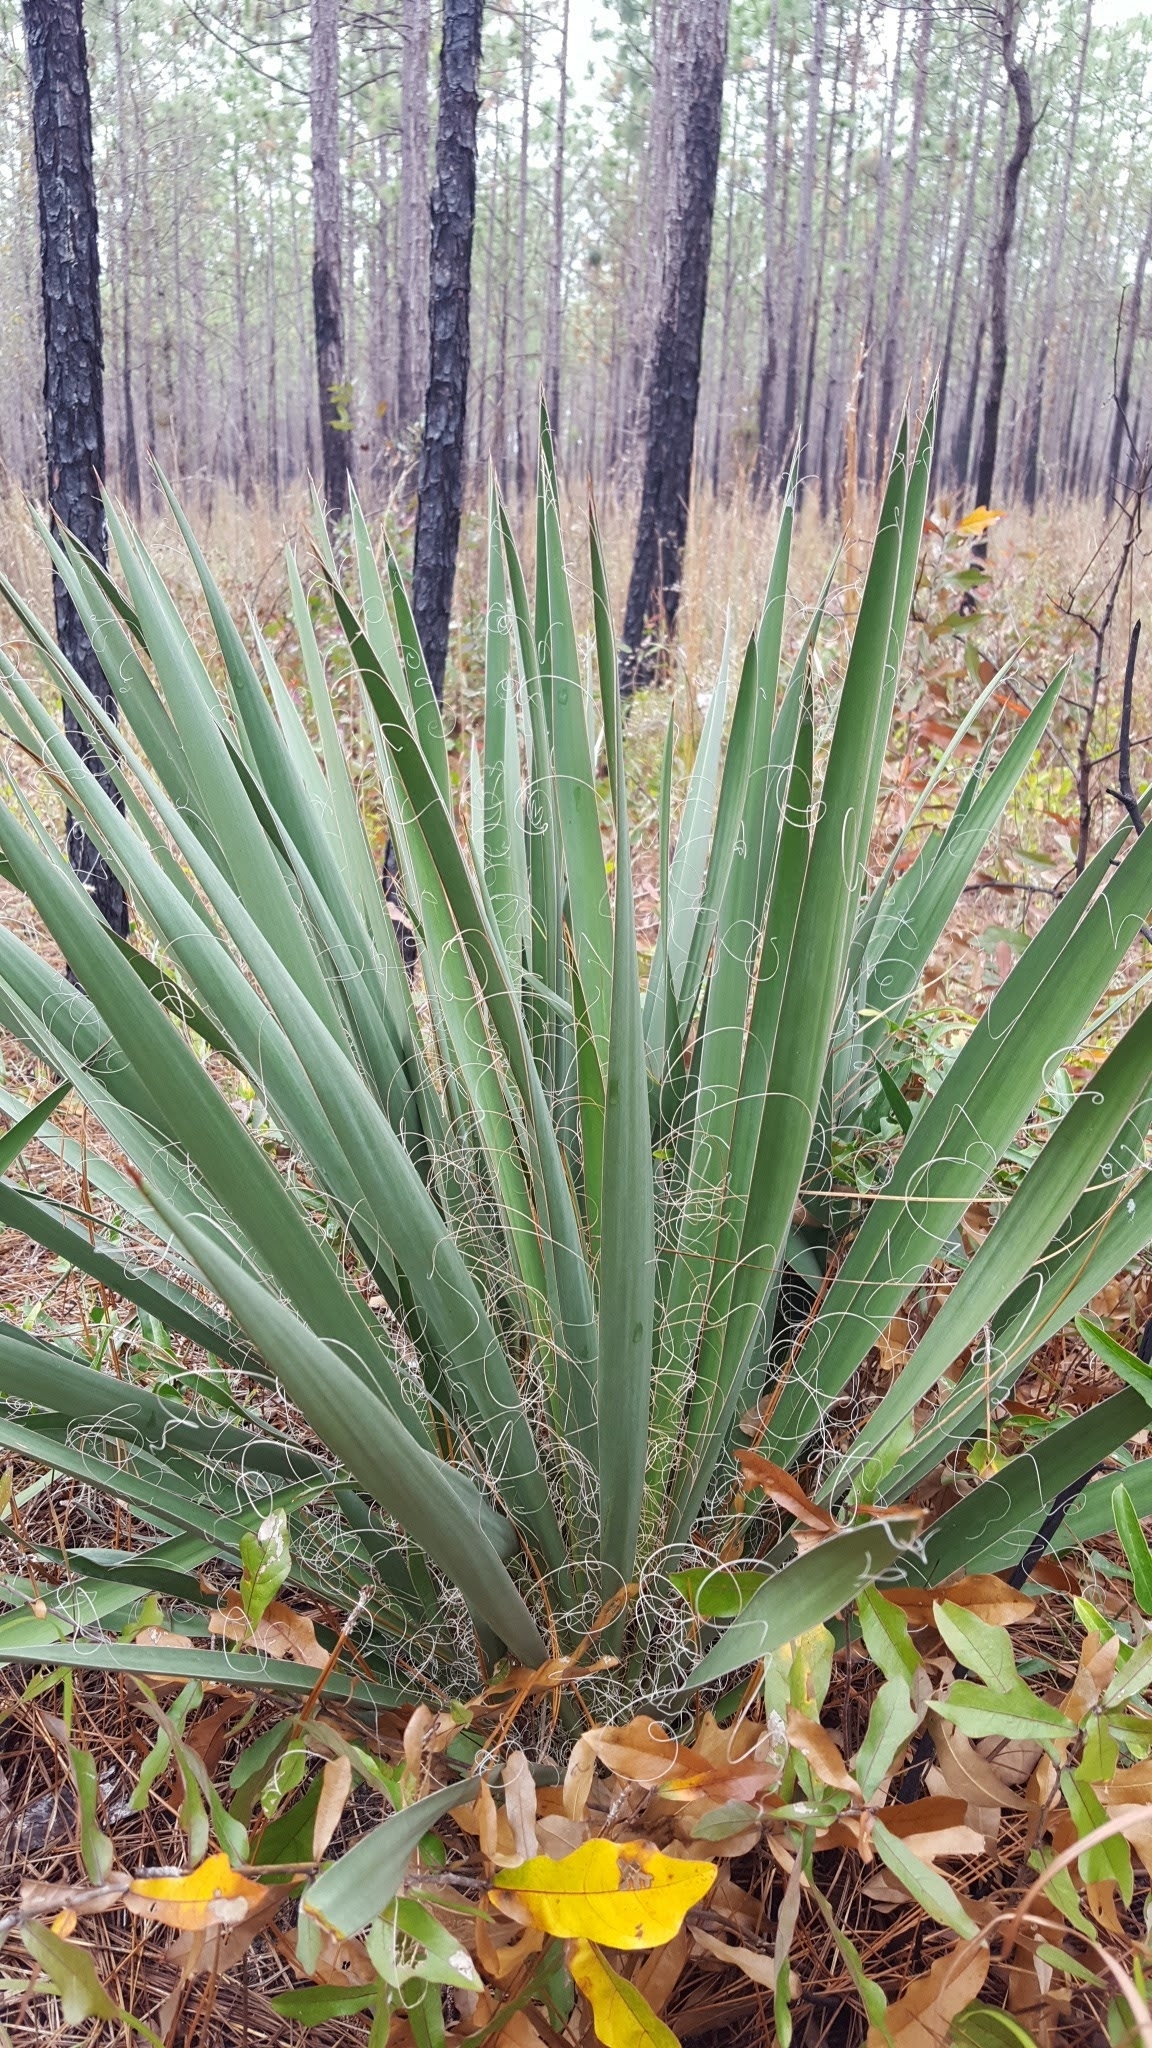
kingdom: Plantae
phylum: Tracheophyta
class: Liliopsida
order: Asparagales
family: Asparagaceae
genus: Yucca
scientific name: Yucca filamentosa
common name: Adam's-needle
